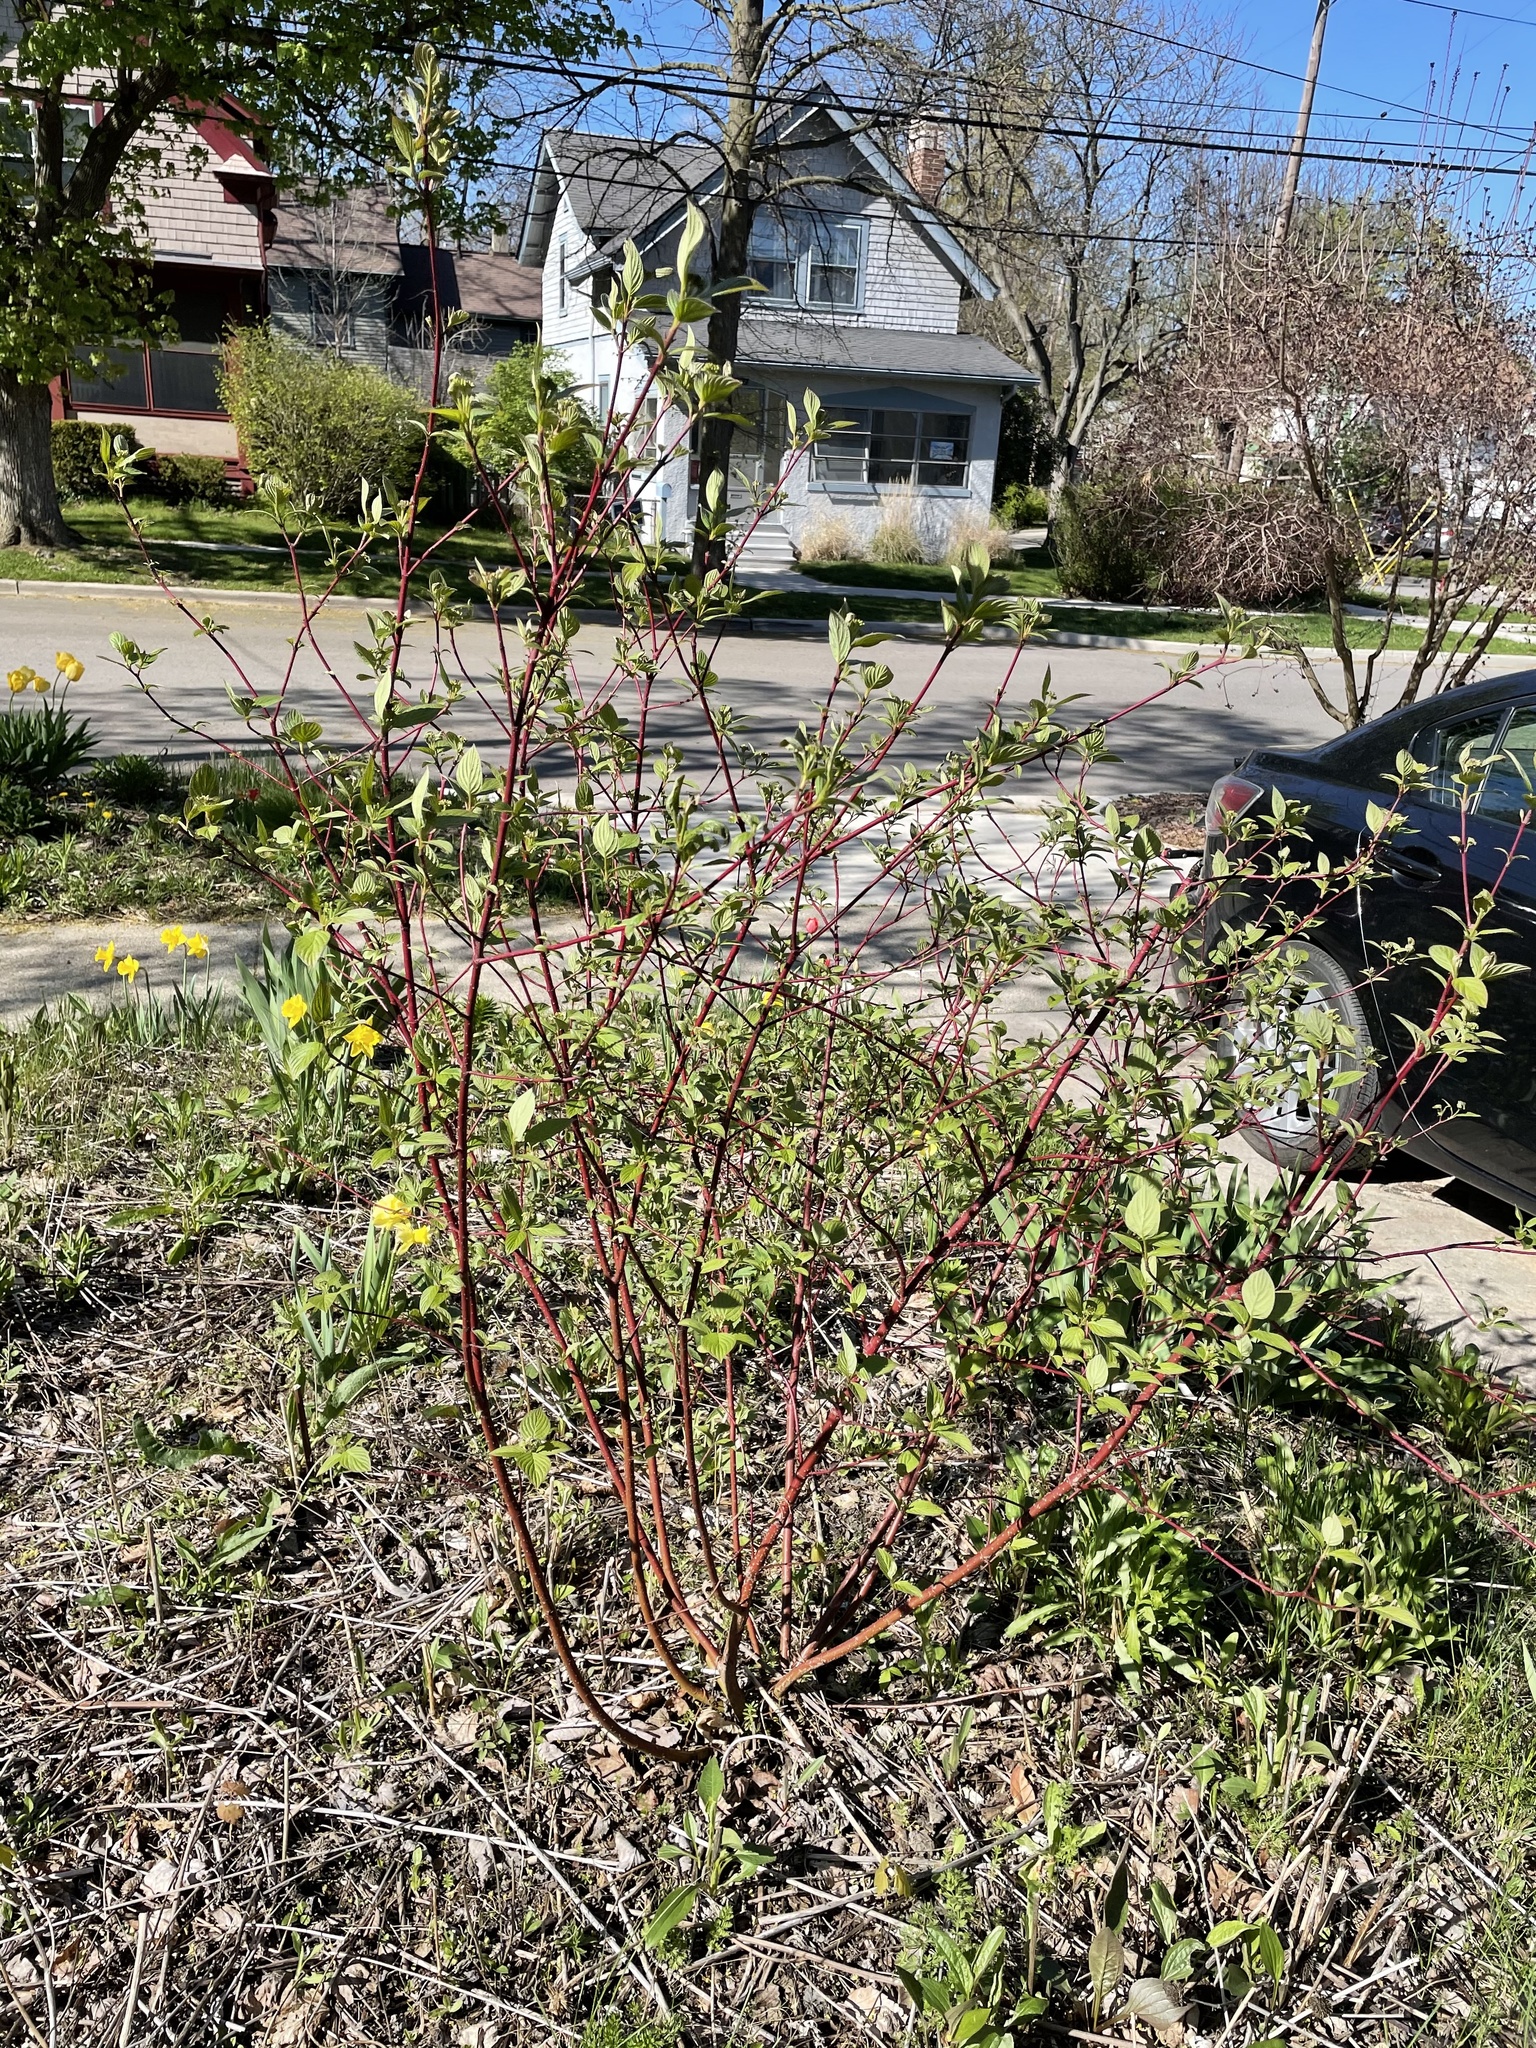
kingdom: Plantae
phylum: Tracheophyta
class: Magnoliopsida
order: Cornales
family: Cornaceae
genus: Cornus
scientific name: Cornus sericea
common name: Red-osier dogwood
